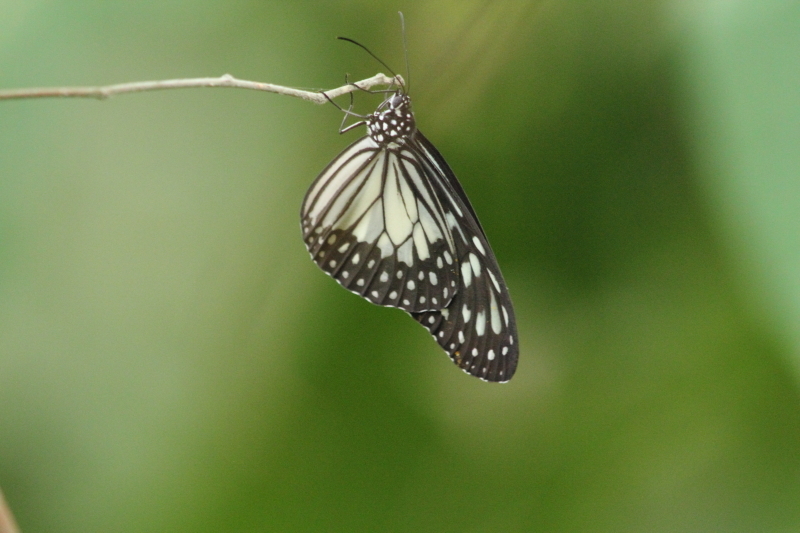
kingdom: Animalia
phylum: Arthropoda
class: Insecta
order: Lepidoptera
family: Nymphalidae
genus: Ideopsis
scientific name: Ideopsis juventa
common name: Grey glassy tiger
